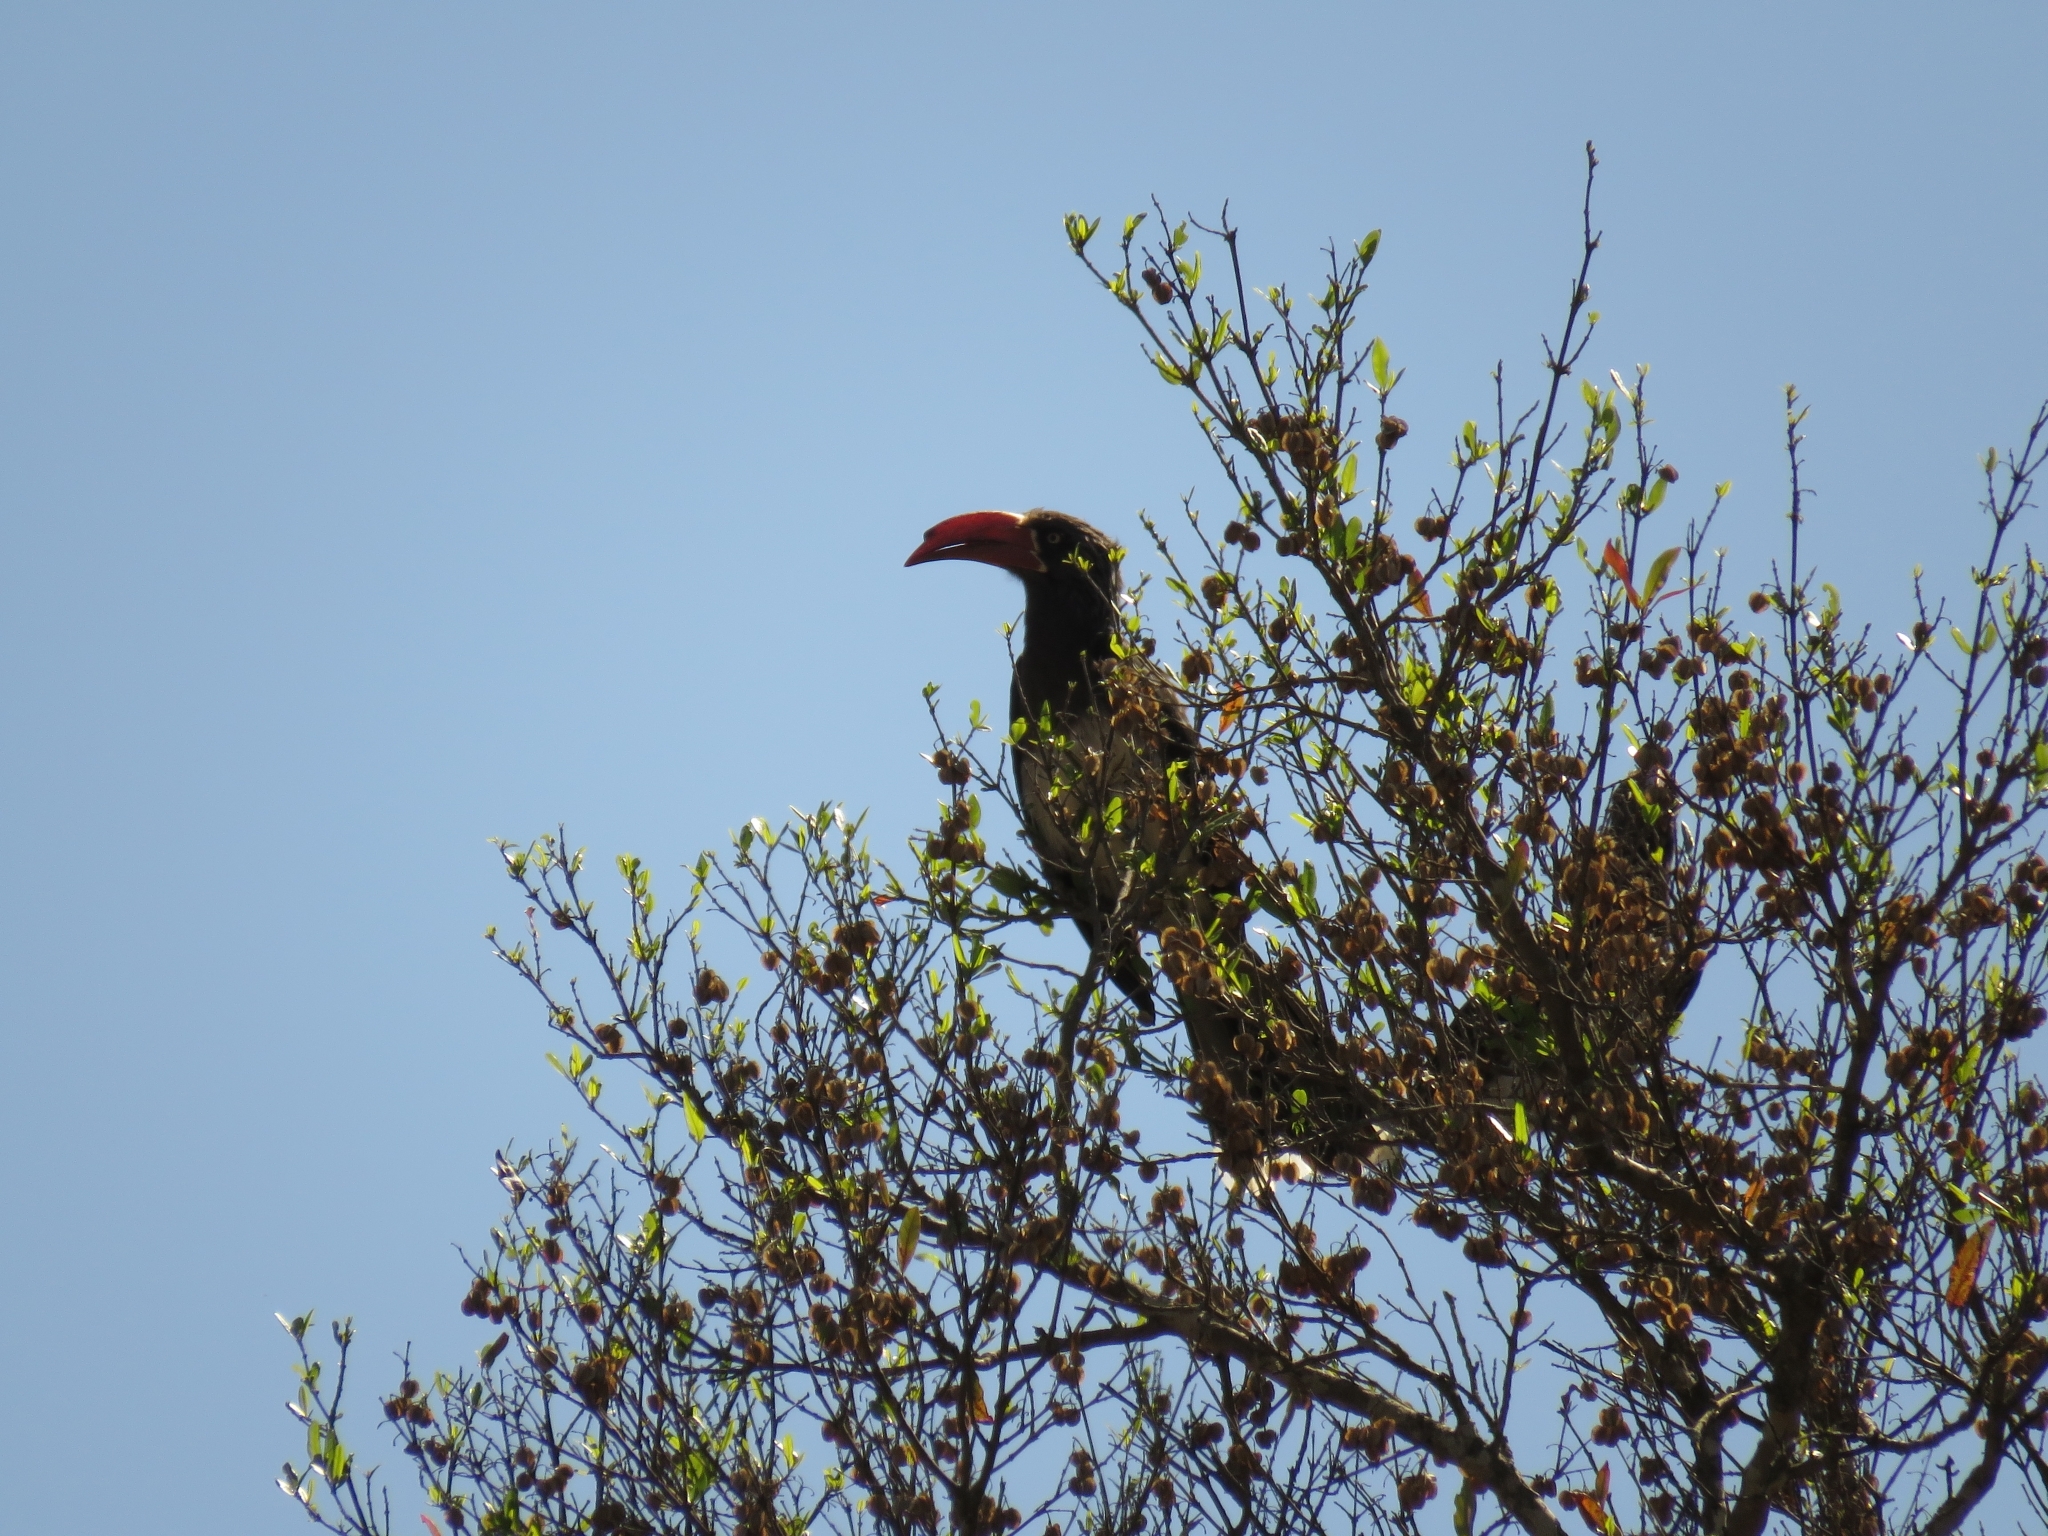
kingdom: Animalia
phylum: Chordata
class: Aves
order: Bucerotiformes
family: Bucerotidae
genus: Lophoceros
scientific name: Lophoceros alboterminatus
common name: Crowned hornbill
